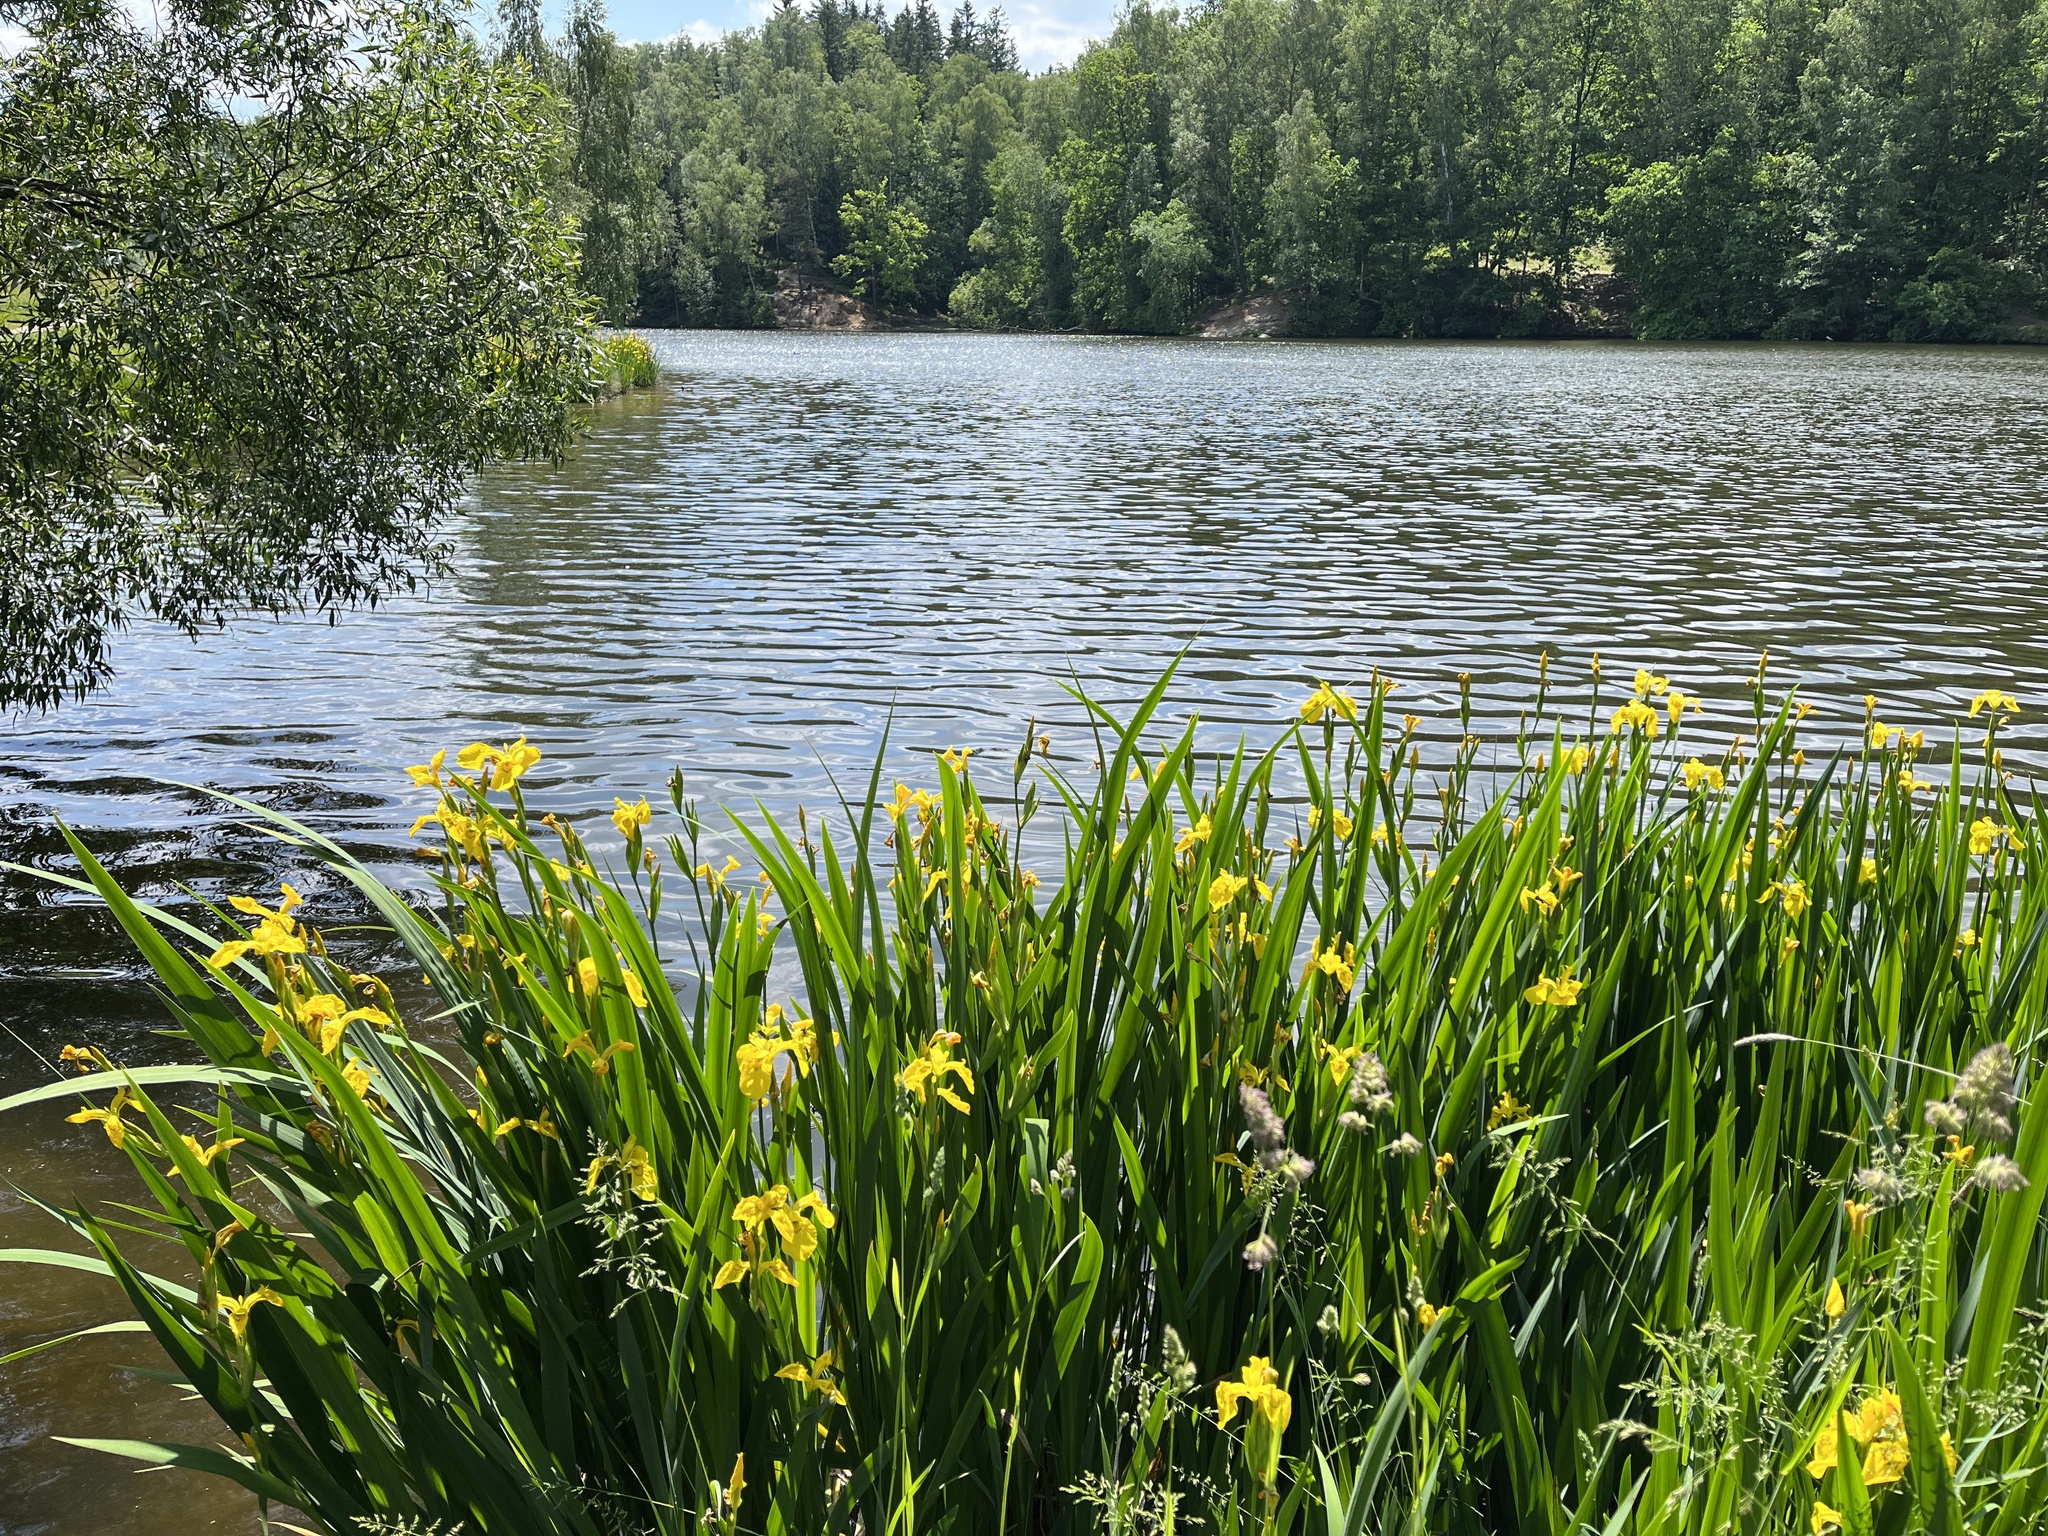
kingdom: Plantae
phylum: Tracheophyta
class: Liliopsida
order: Asparagales
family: Iridaceae
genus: Iris
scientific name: Iris pseudacorus
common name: Yellow flag
